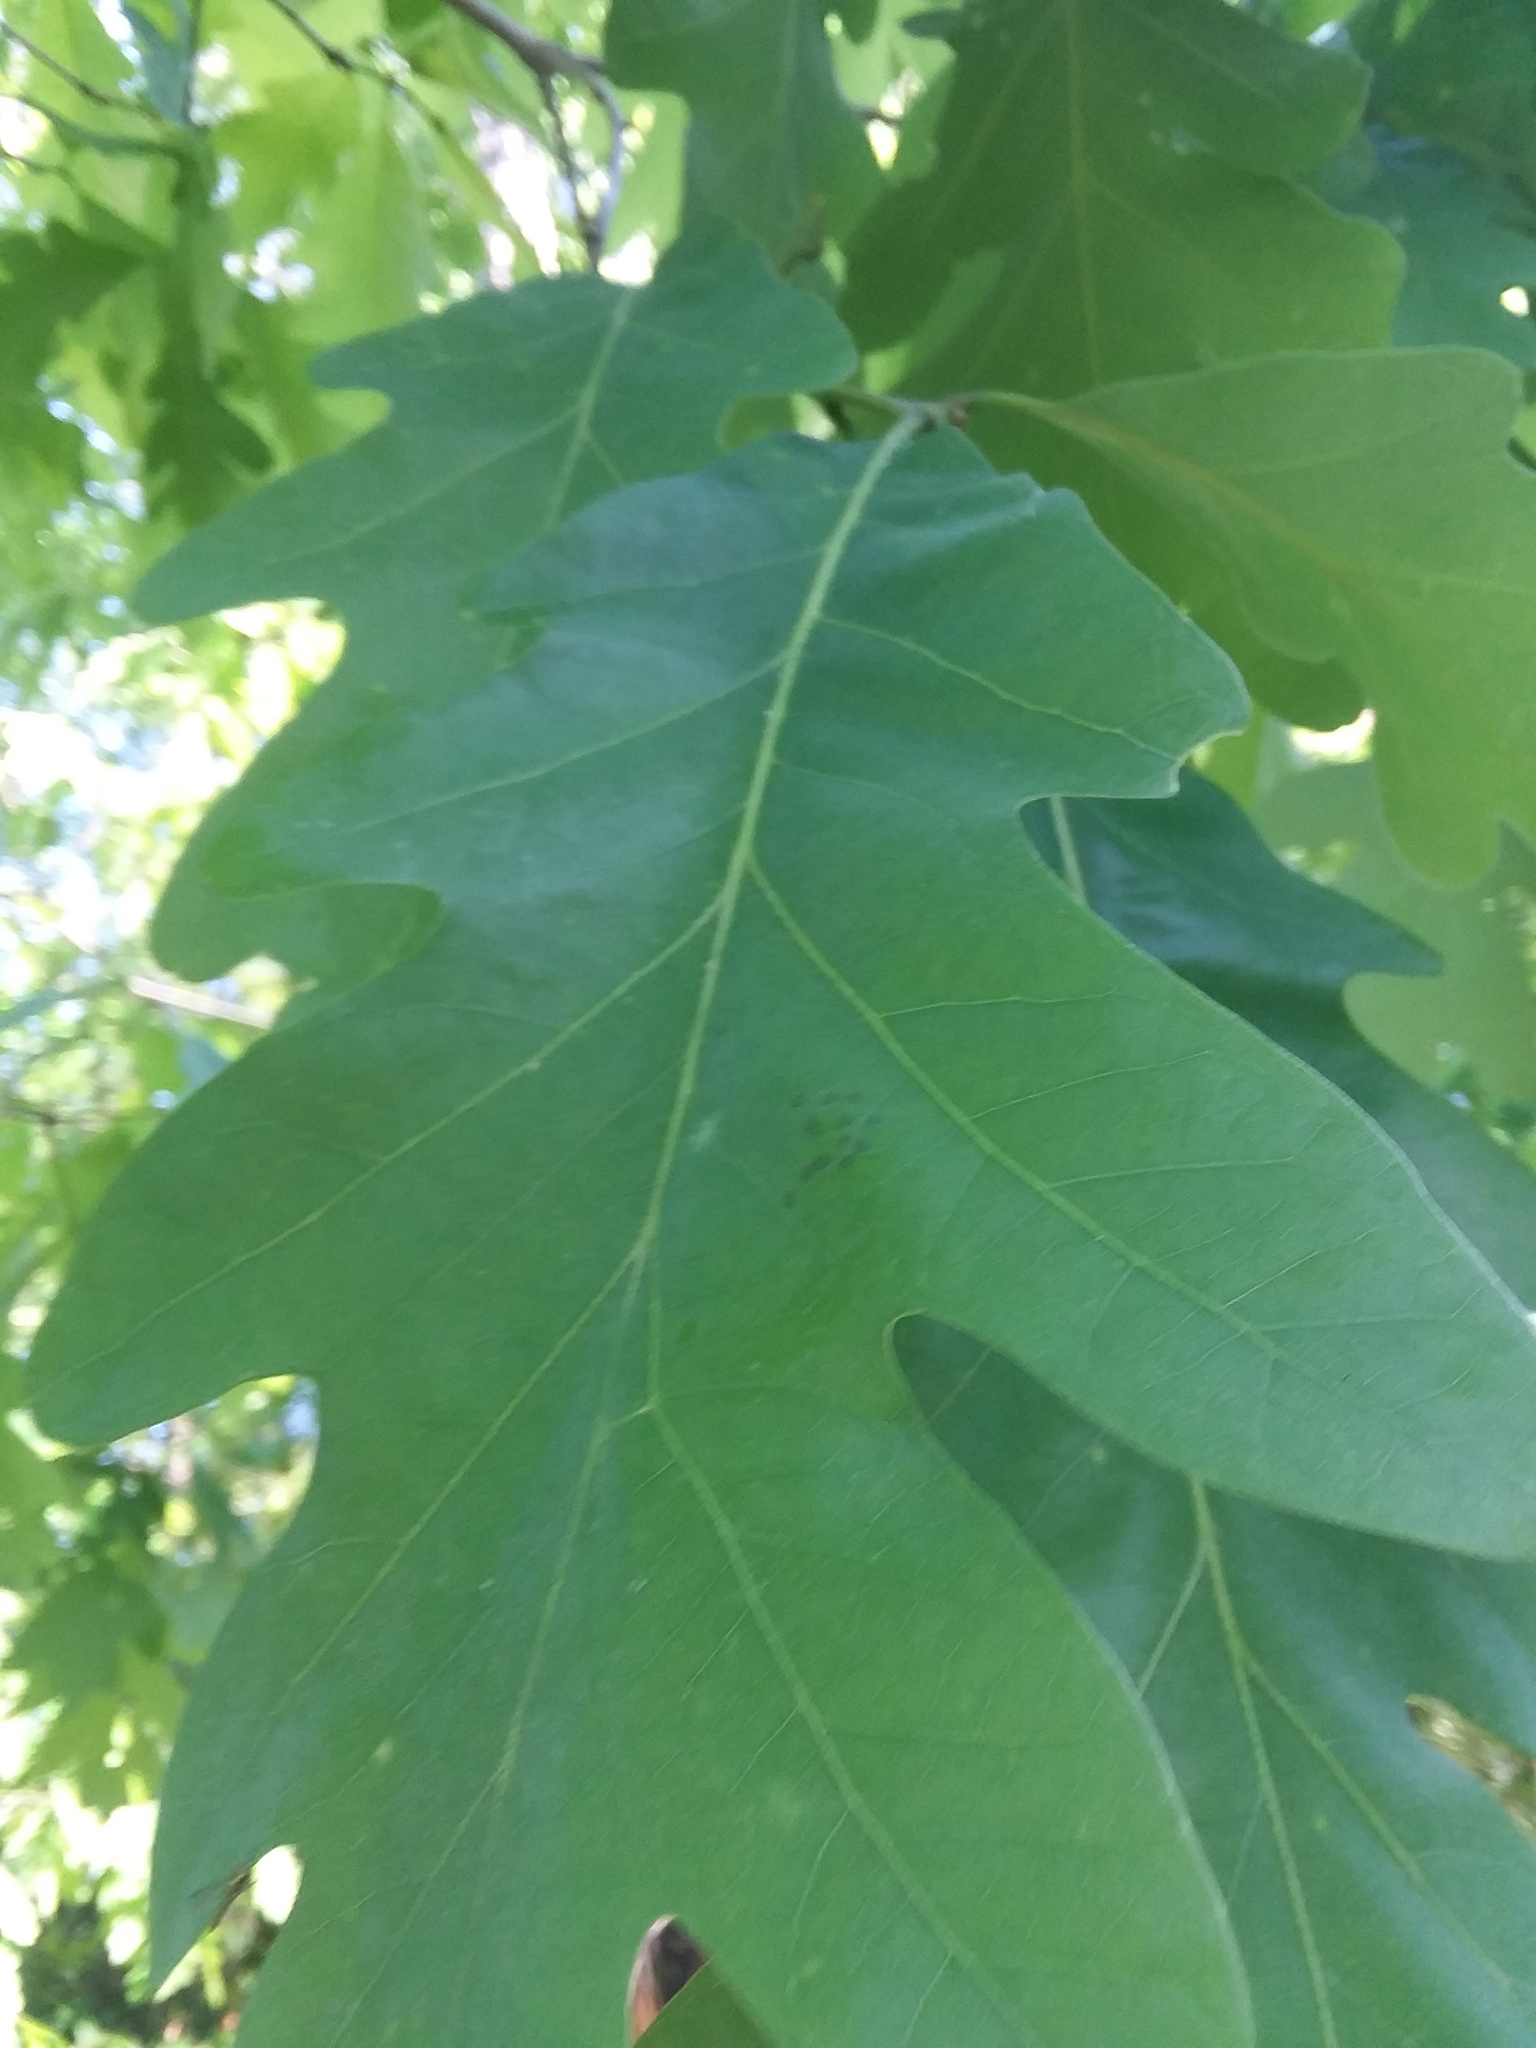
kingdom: Plantae
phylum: Tracheophyta
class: Magnoliopsida
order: Fagales
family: Fagaceae
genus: Quercus
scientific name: Quercus alba
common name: White oak
